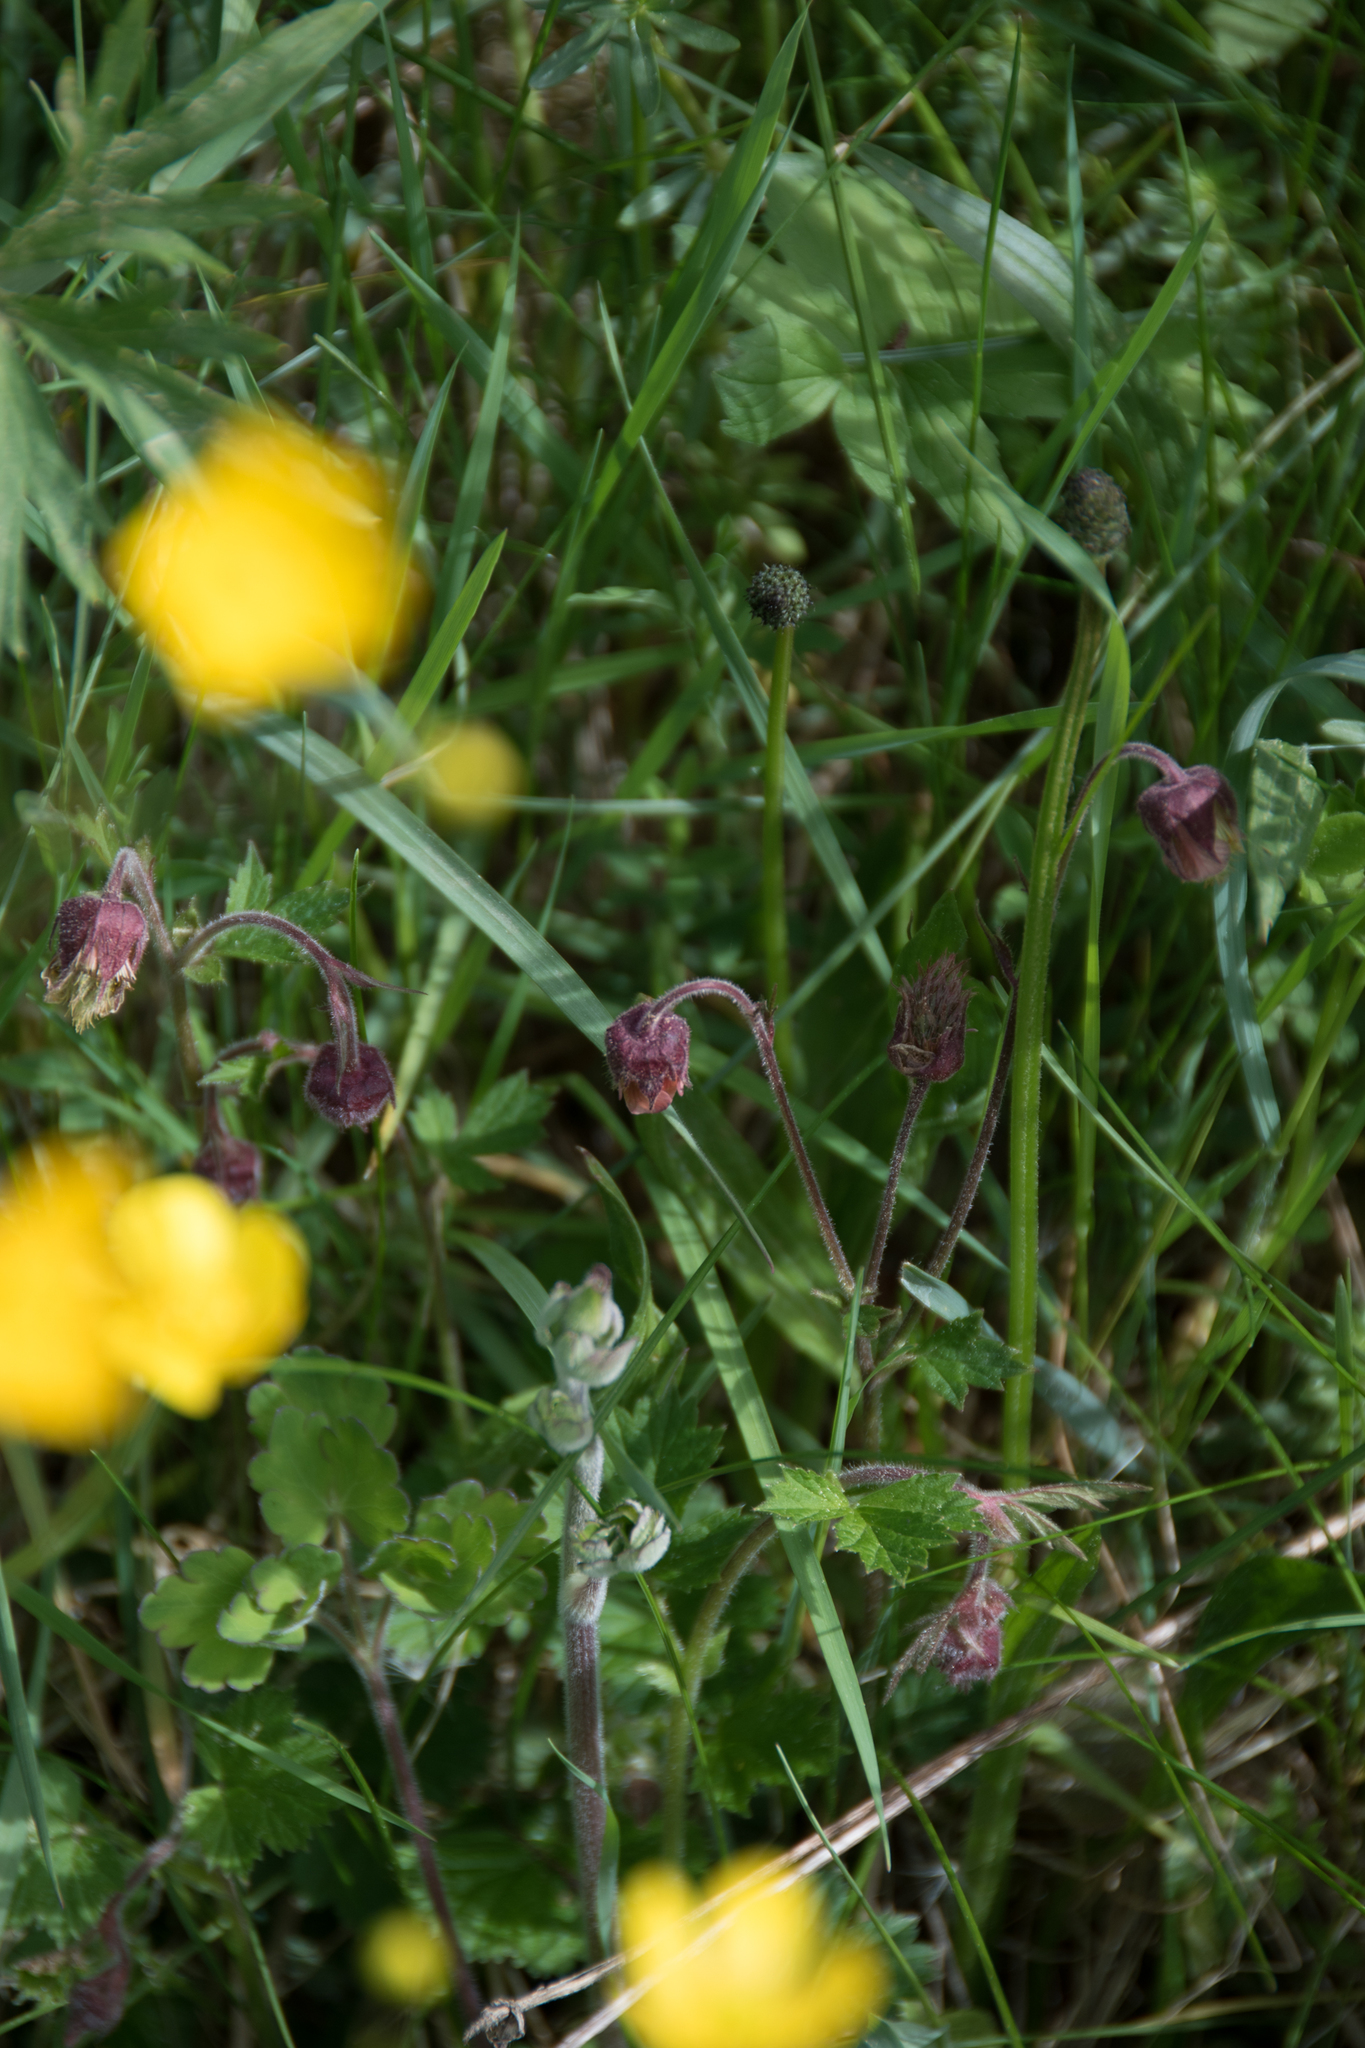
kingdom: Plantae
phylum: Tracheophyta
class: Magnoliopsida
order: Rosales
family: Rosaceae
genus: Geum
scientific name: Geum rivale
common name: Water avens
